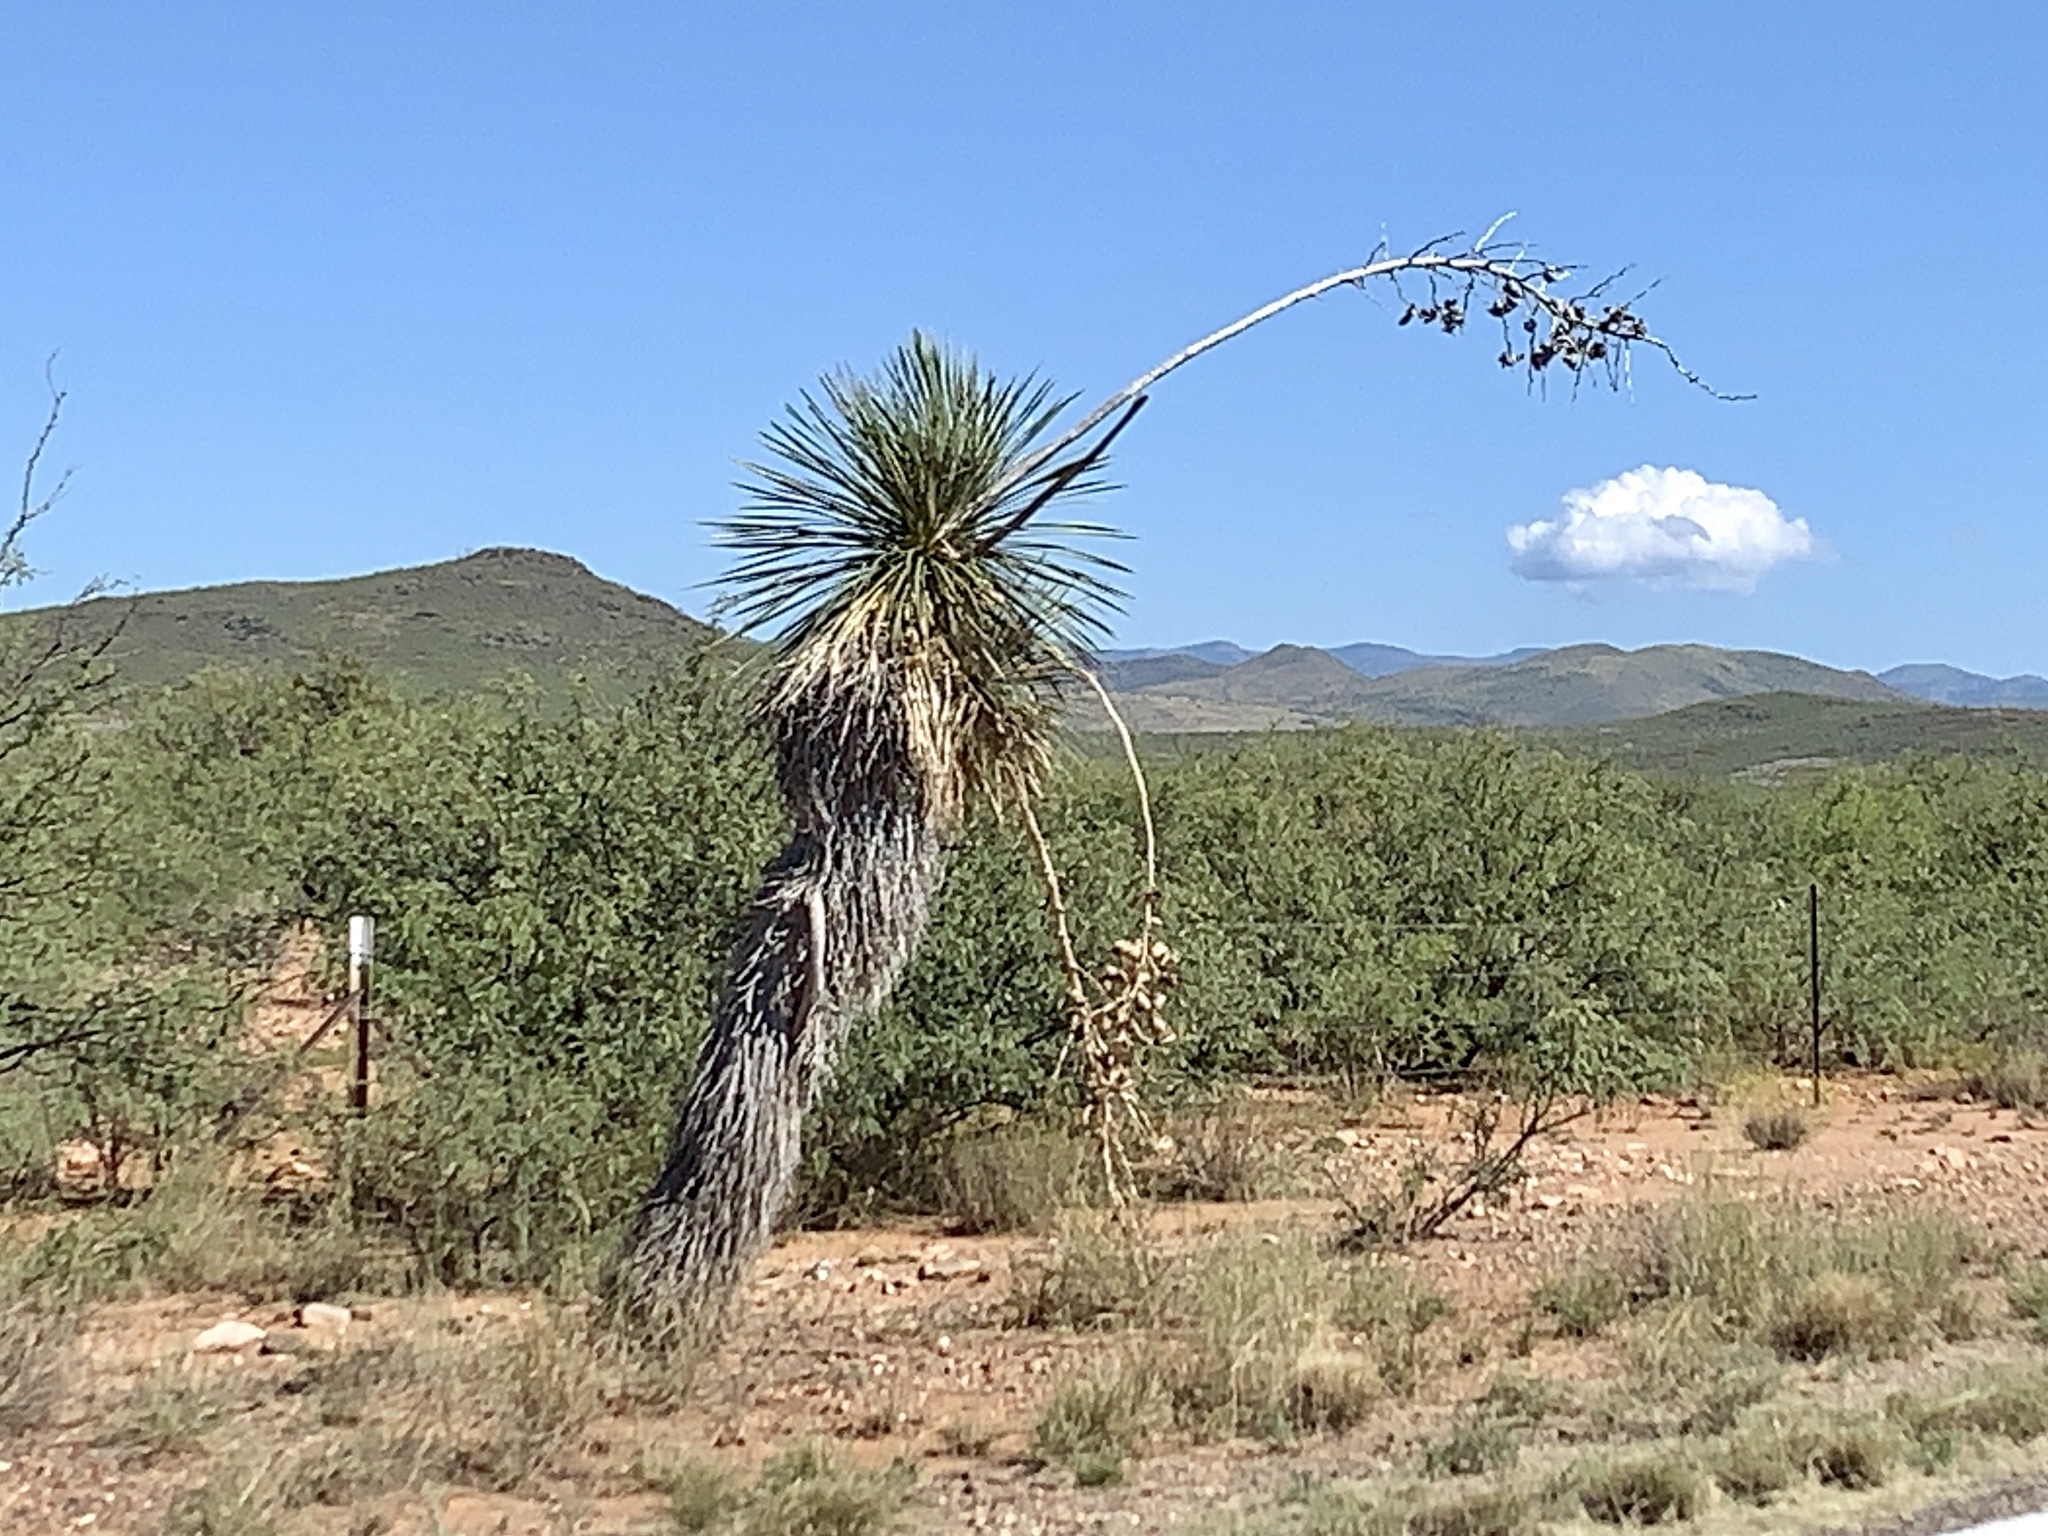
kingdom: Plantae
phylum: Tracheophyta
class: Liliopsida
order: Asparagales
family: Asparagaceae
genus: Yucca
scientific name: Yucca elata
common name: Palmella
